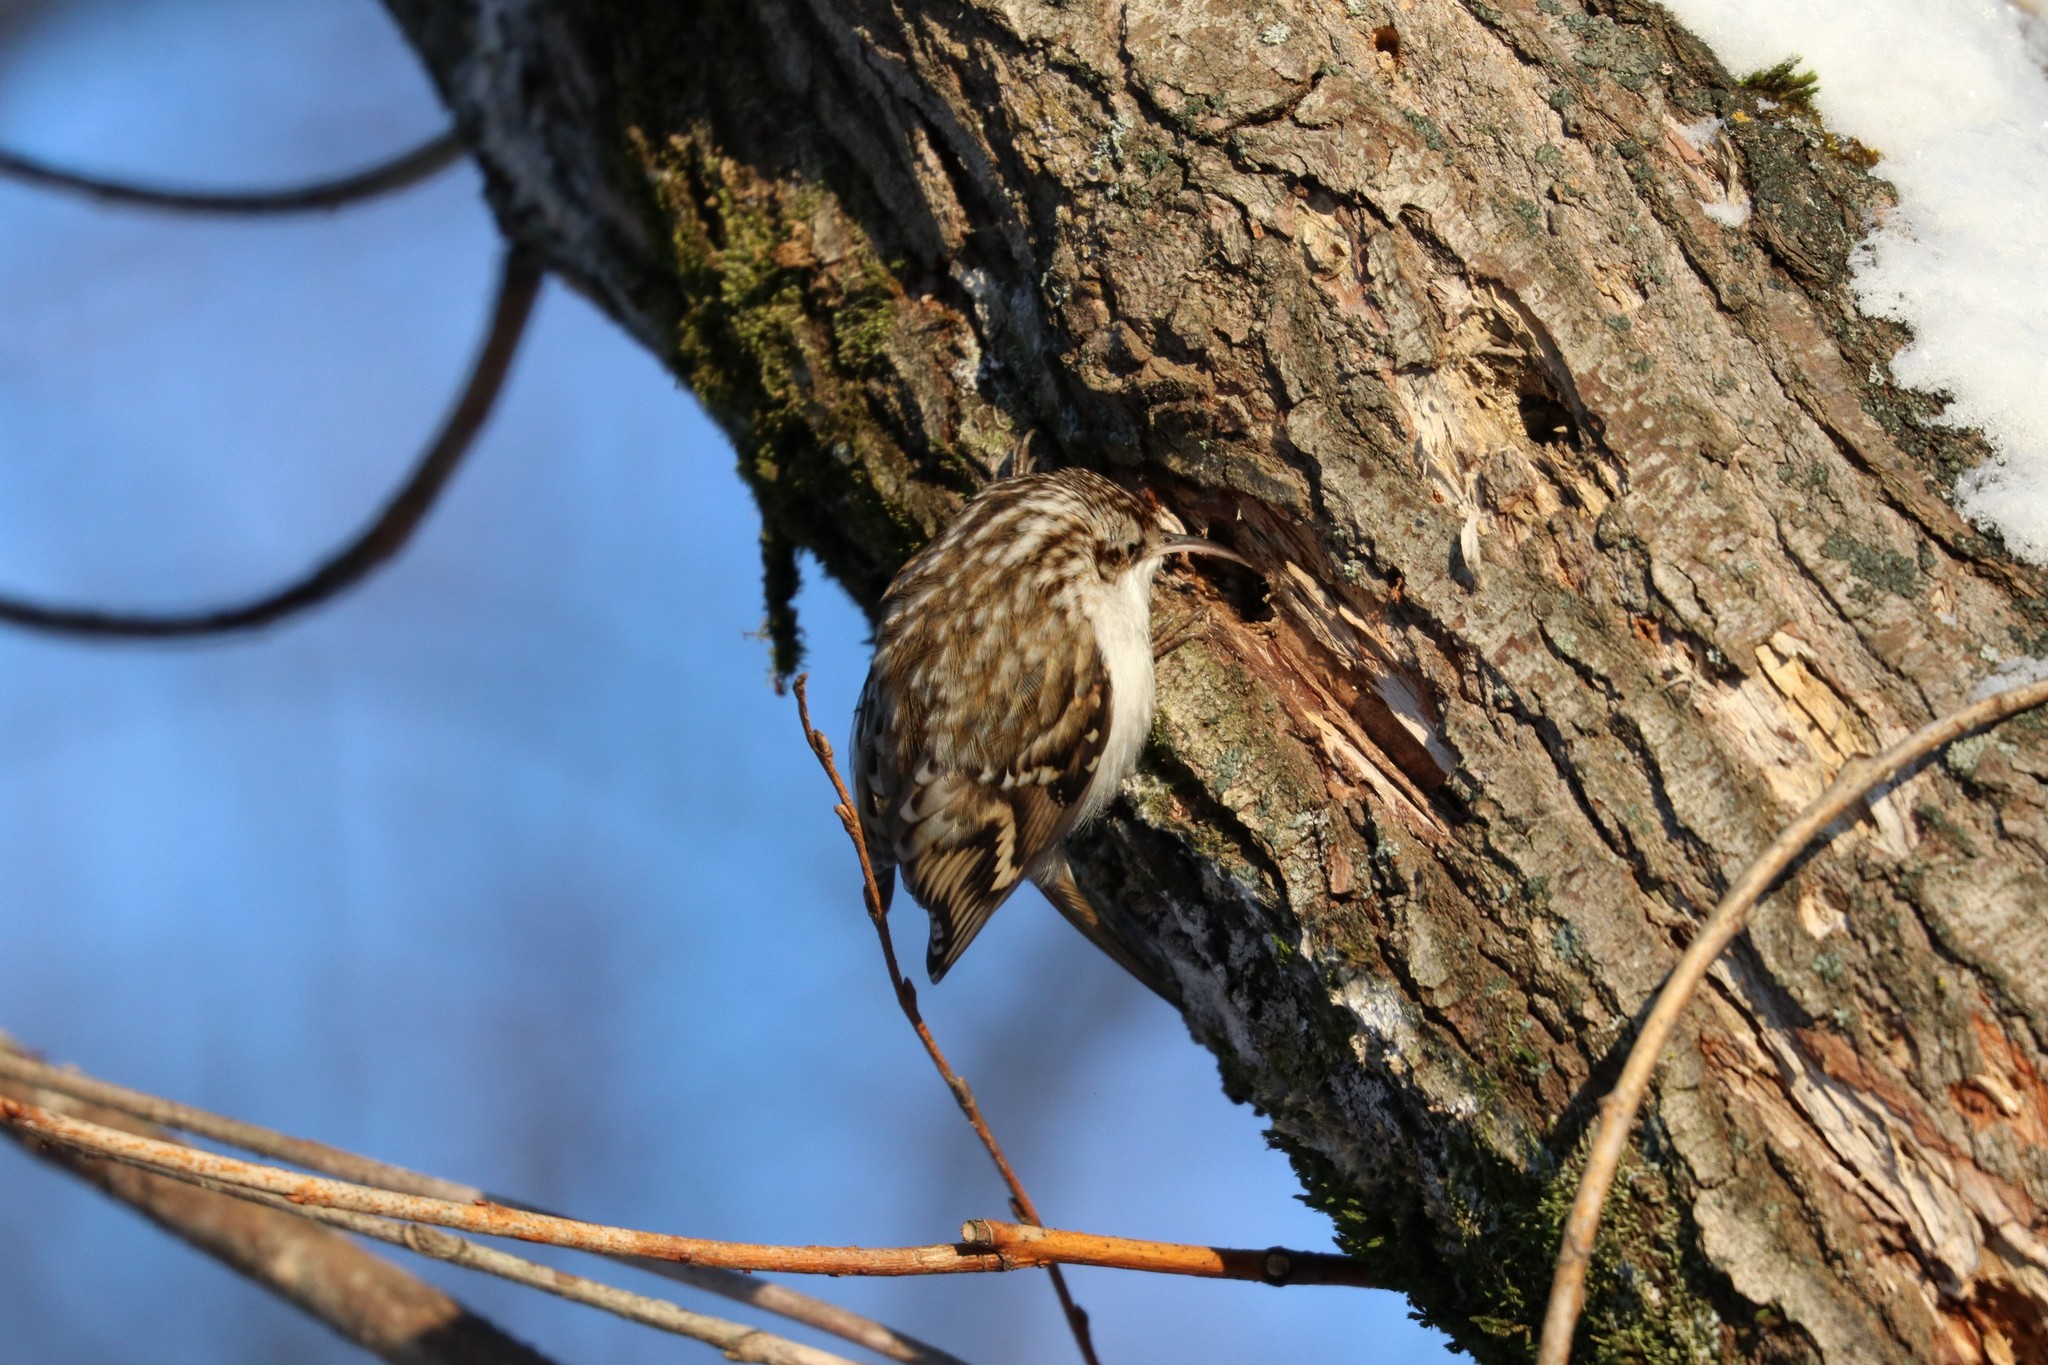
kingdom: Animalia
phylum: Chordata
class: Aves
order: Passeriformes
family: Certhiidae
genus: Certhia
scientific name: Certhia familiaris
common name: Eurasian treecreeper
